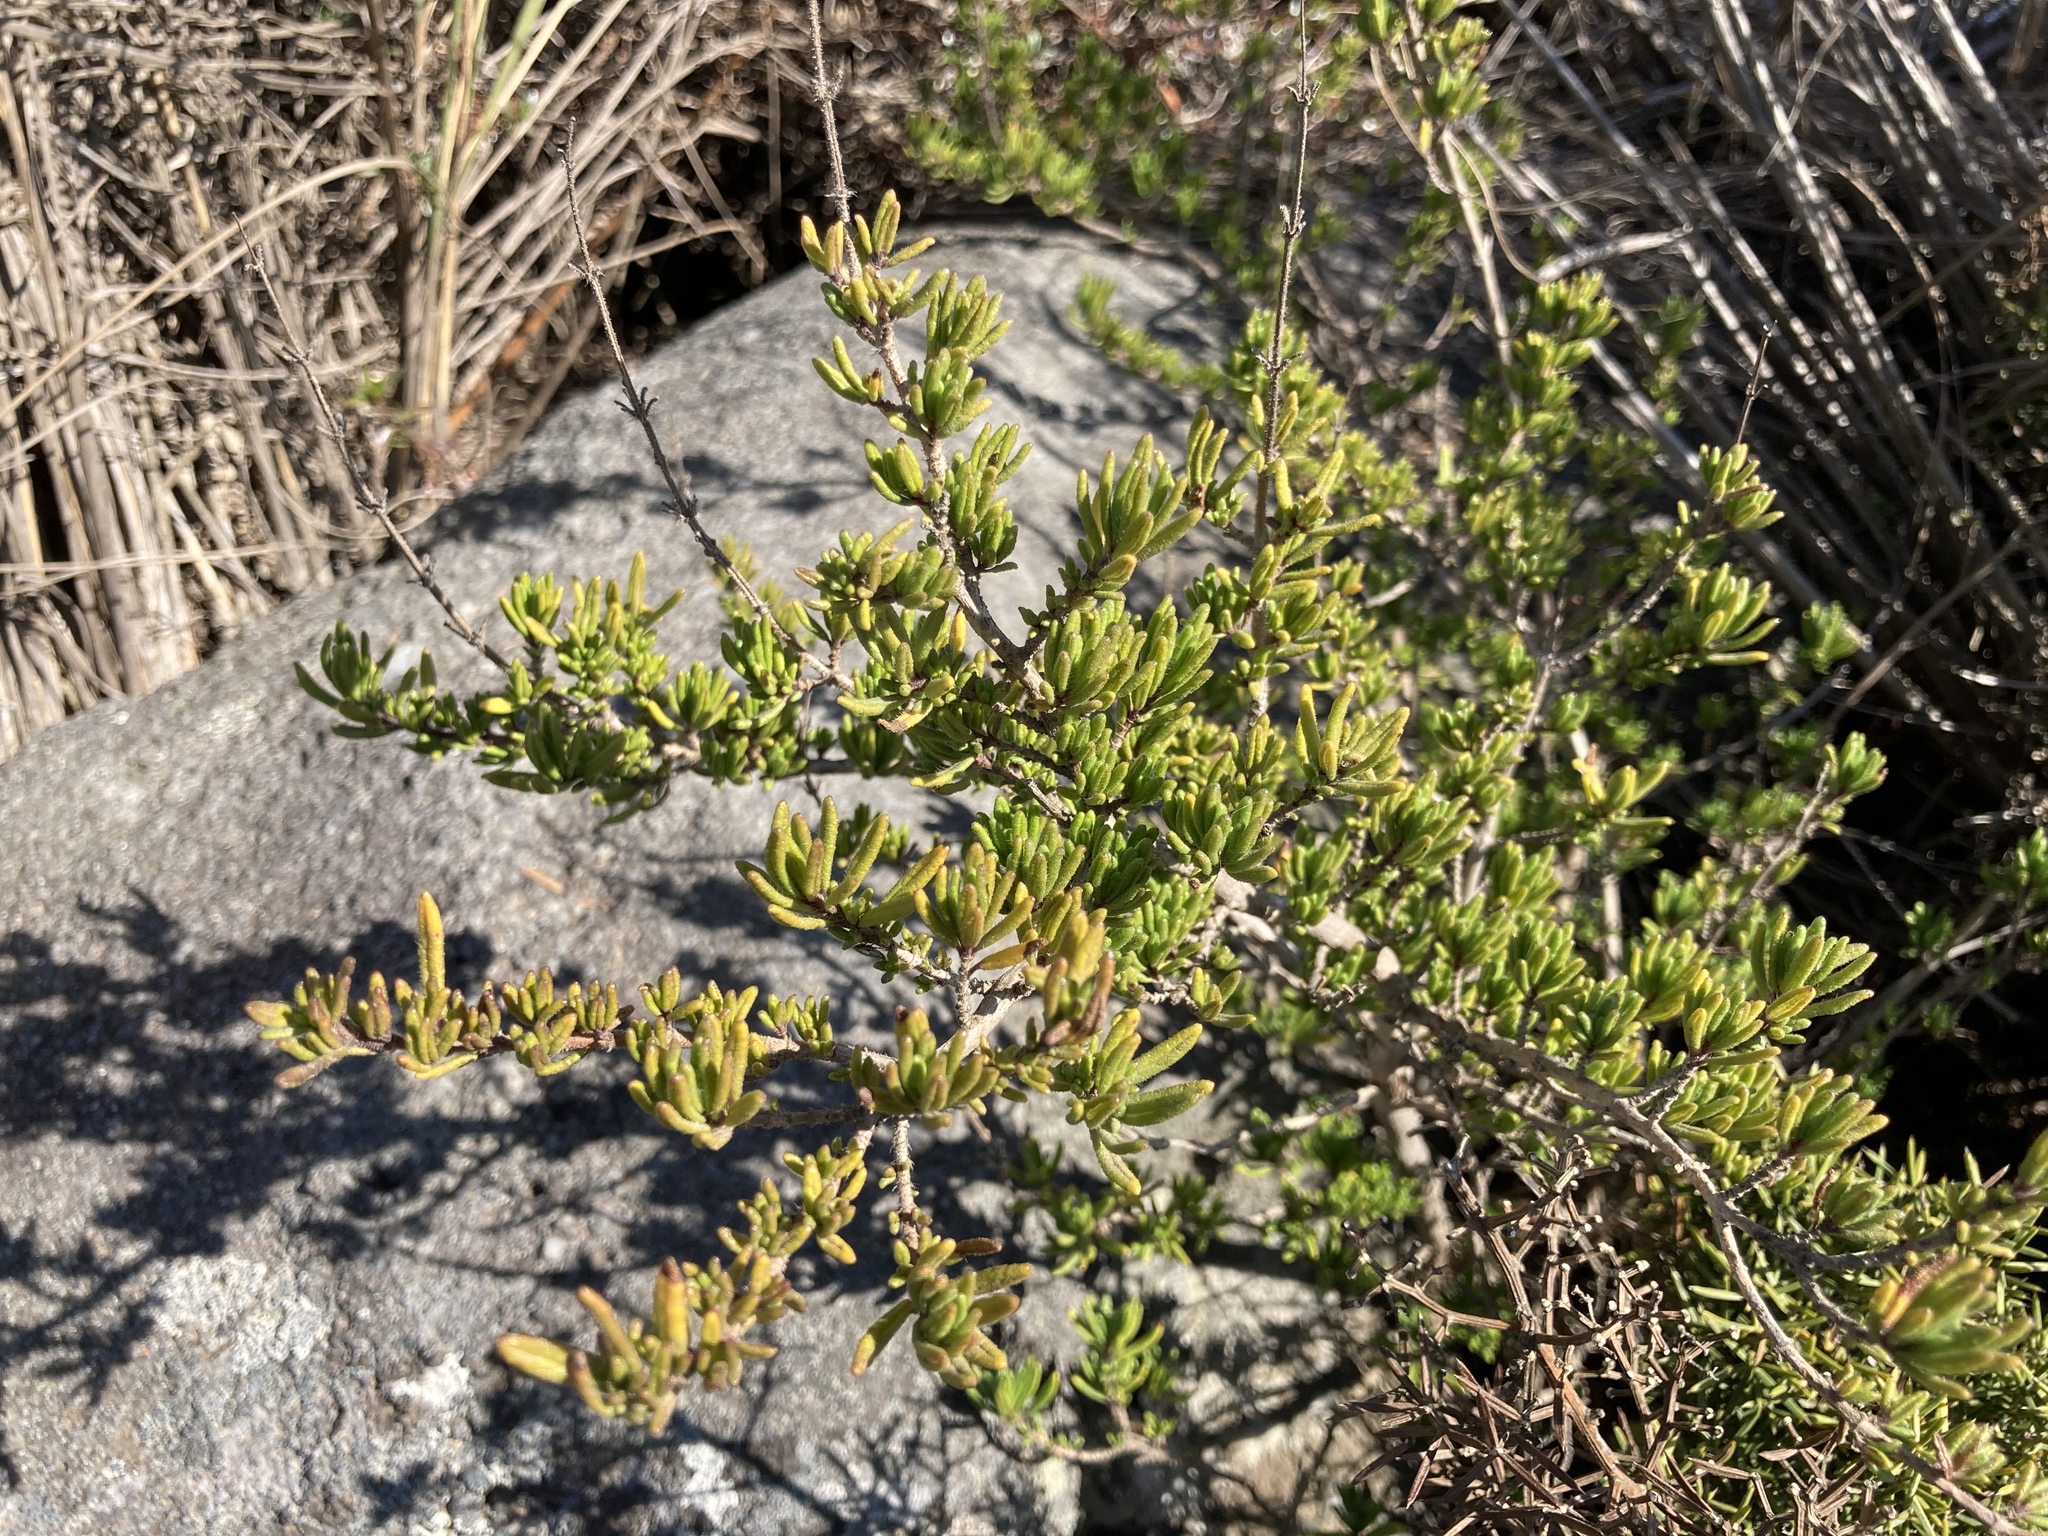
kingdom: Plantae
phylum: Tracheophyta
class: Magnoliopsida
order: Lamiales
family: Lamiaceae
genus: Syncolostemon
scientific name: Syncolostemon albiflorus
